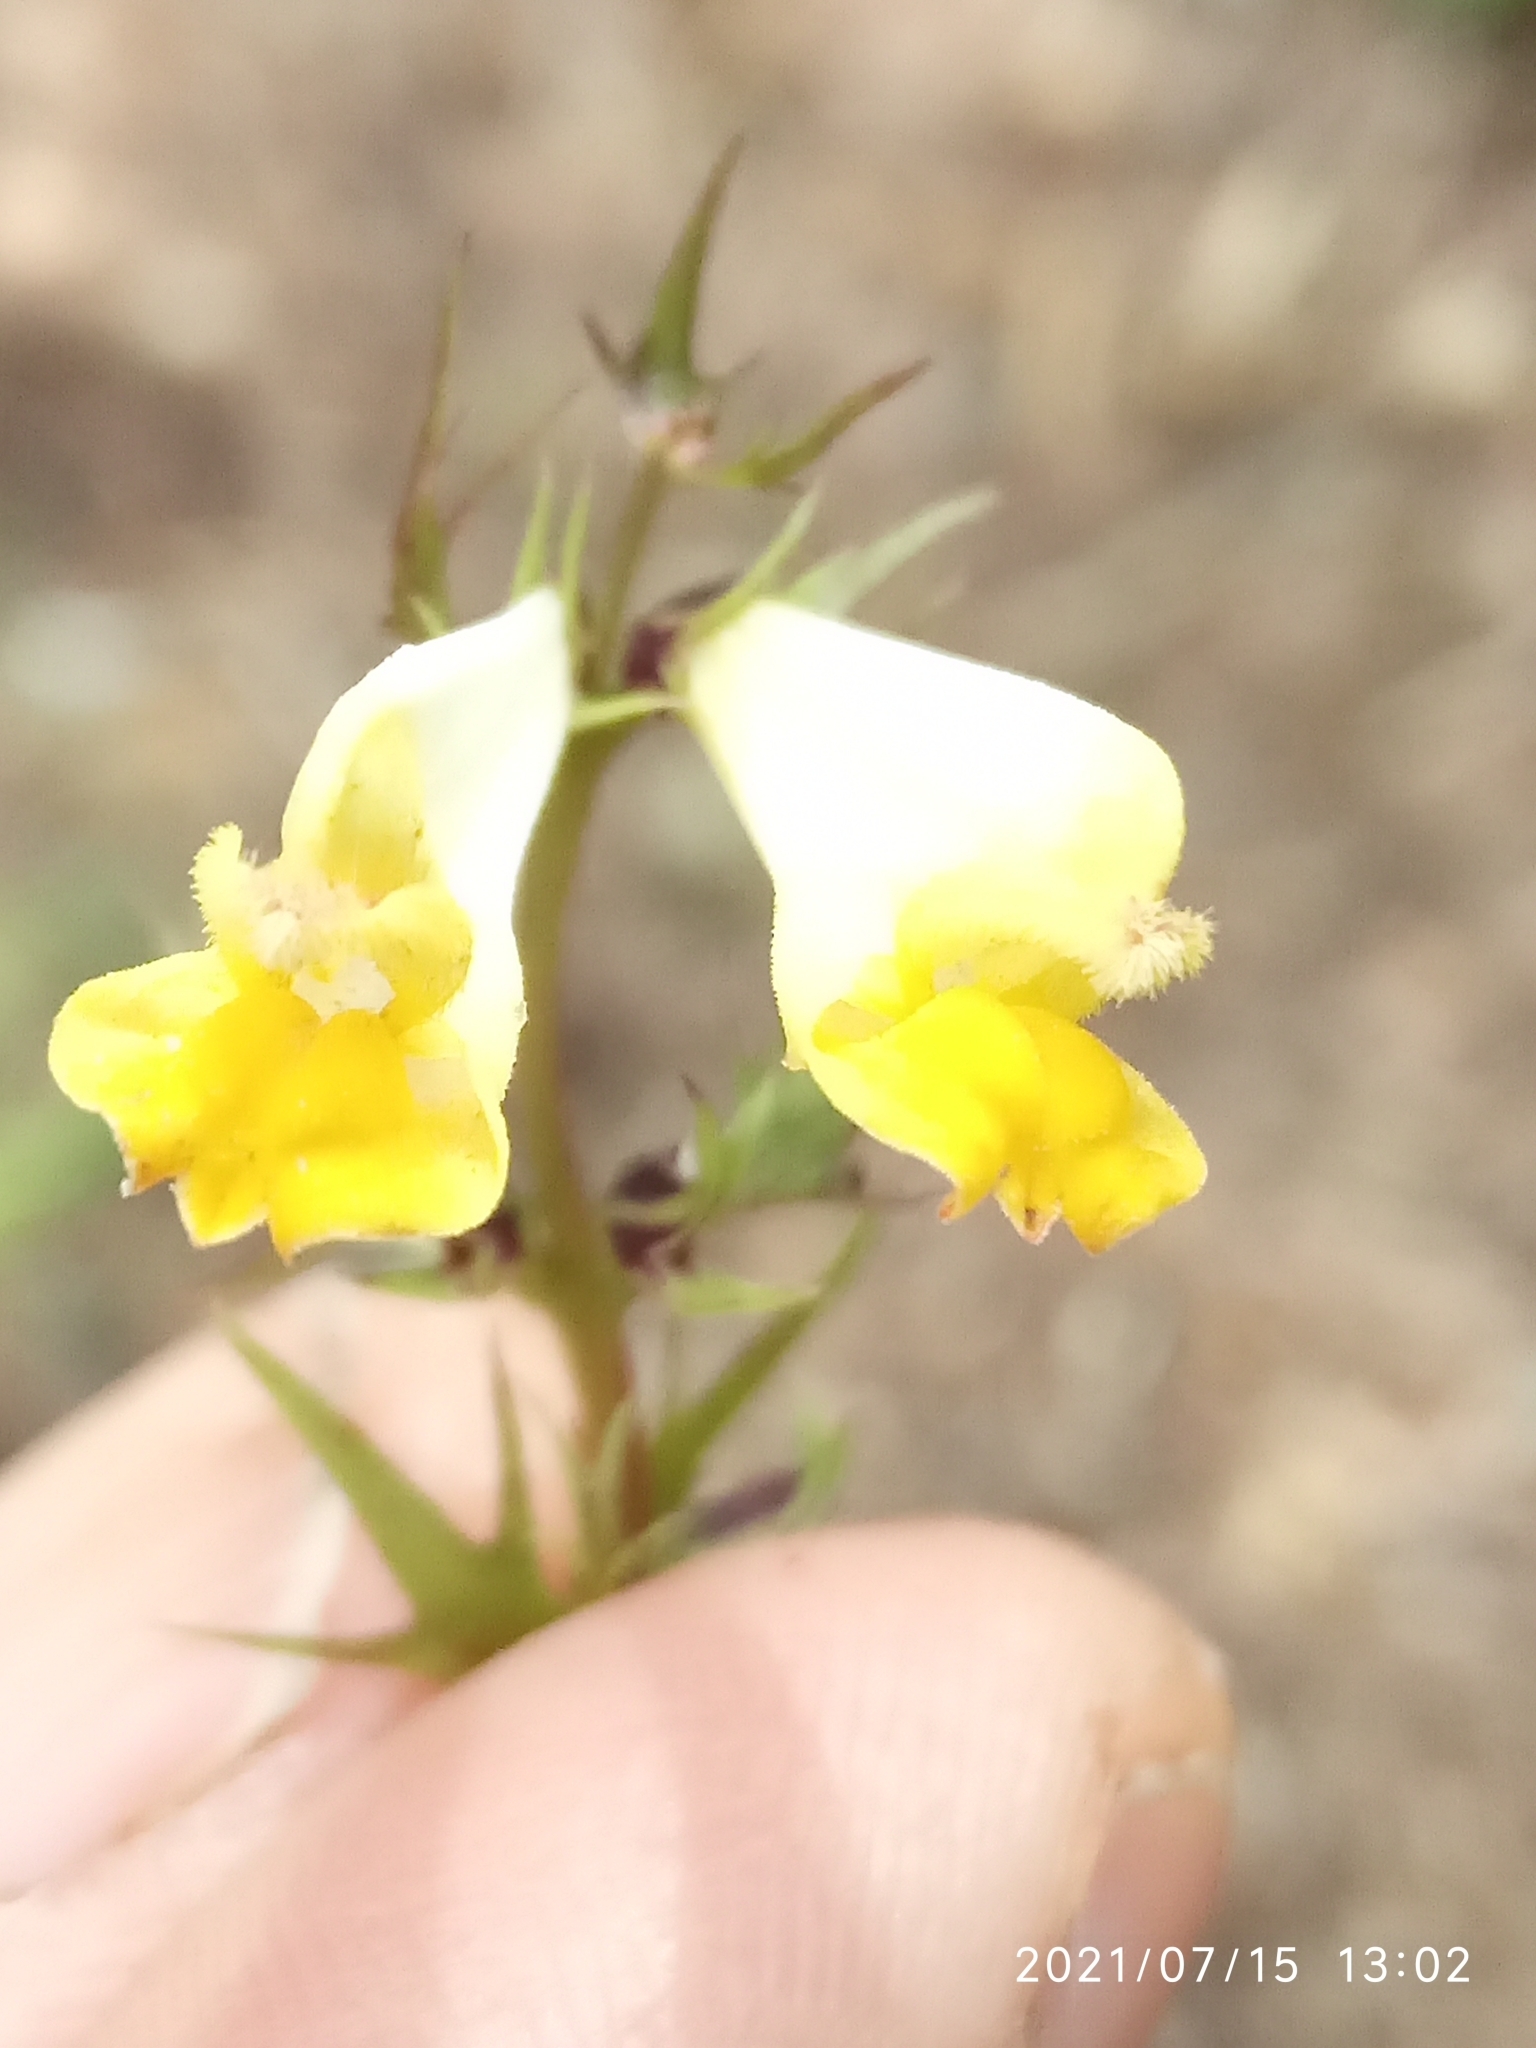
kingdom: Plantae
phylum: Tracheophyta
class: Magnoliopsida
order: Lamiales
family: Orobanchaceae
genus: Melampyrum
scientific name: Melampyrum pratense
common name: Common cow-wheat
